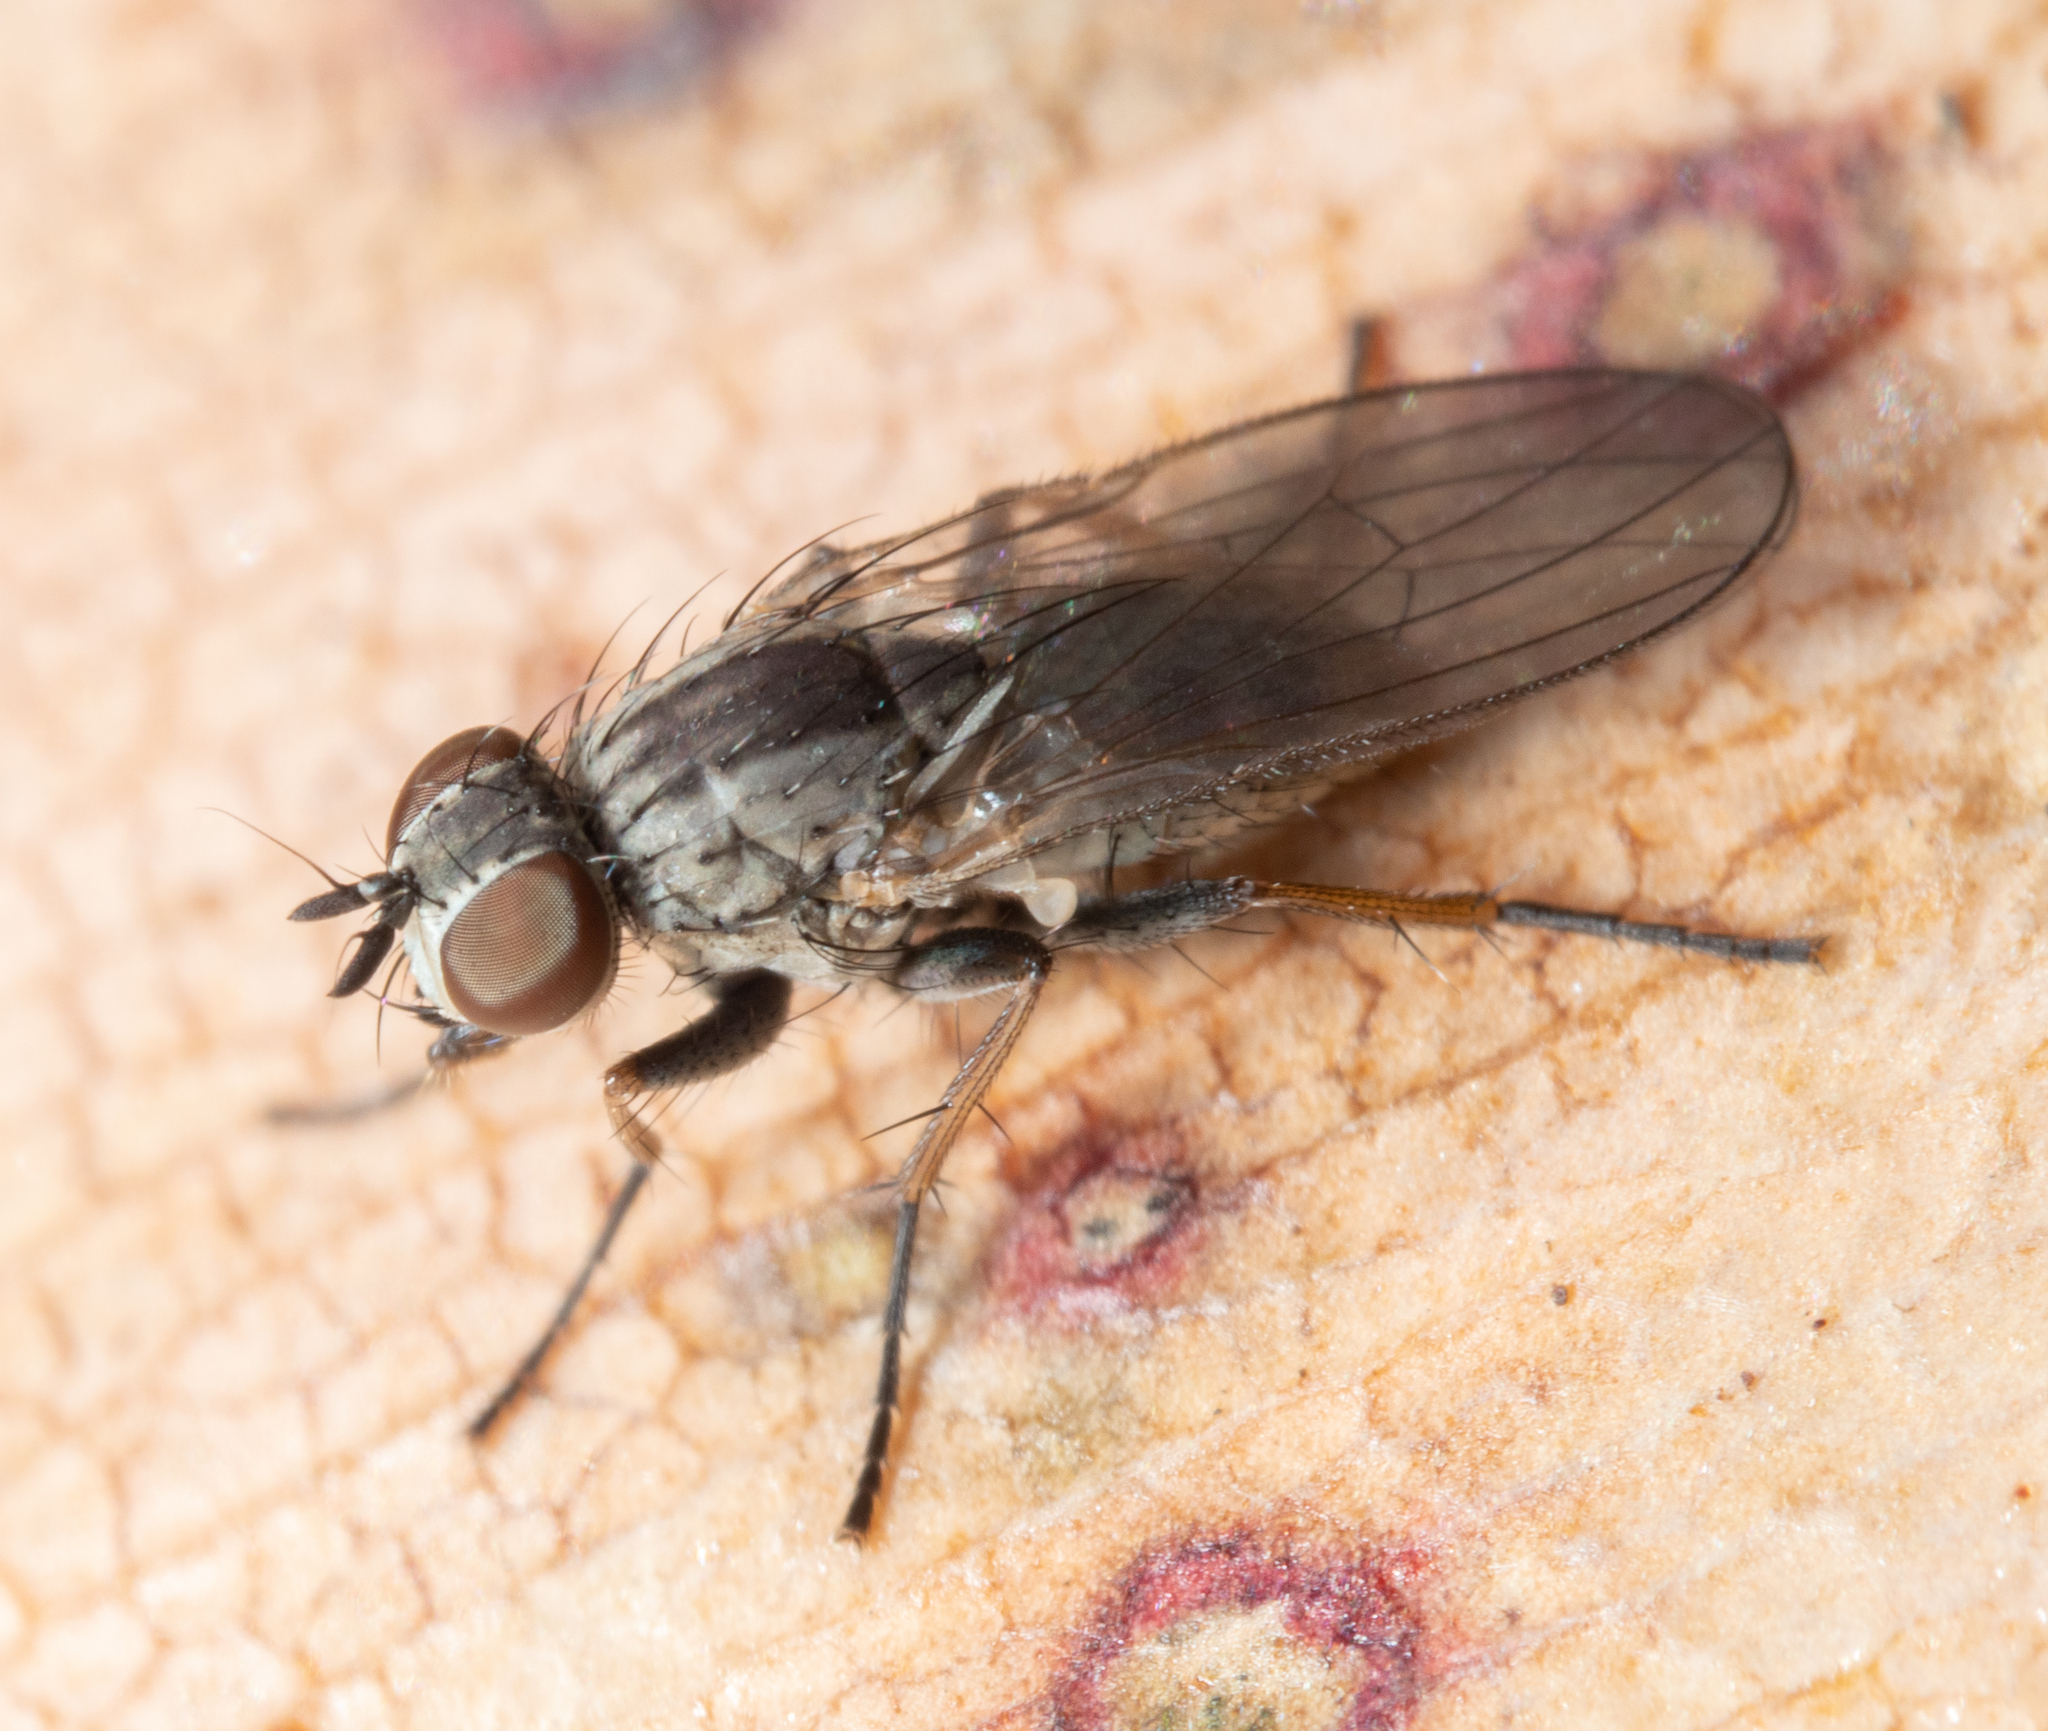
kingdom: Animalia
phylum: Arthropoda
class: Insecta
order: Diptera
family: Muscidae
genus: Coenosia
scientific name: Coenosia acuticornis
